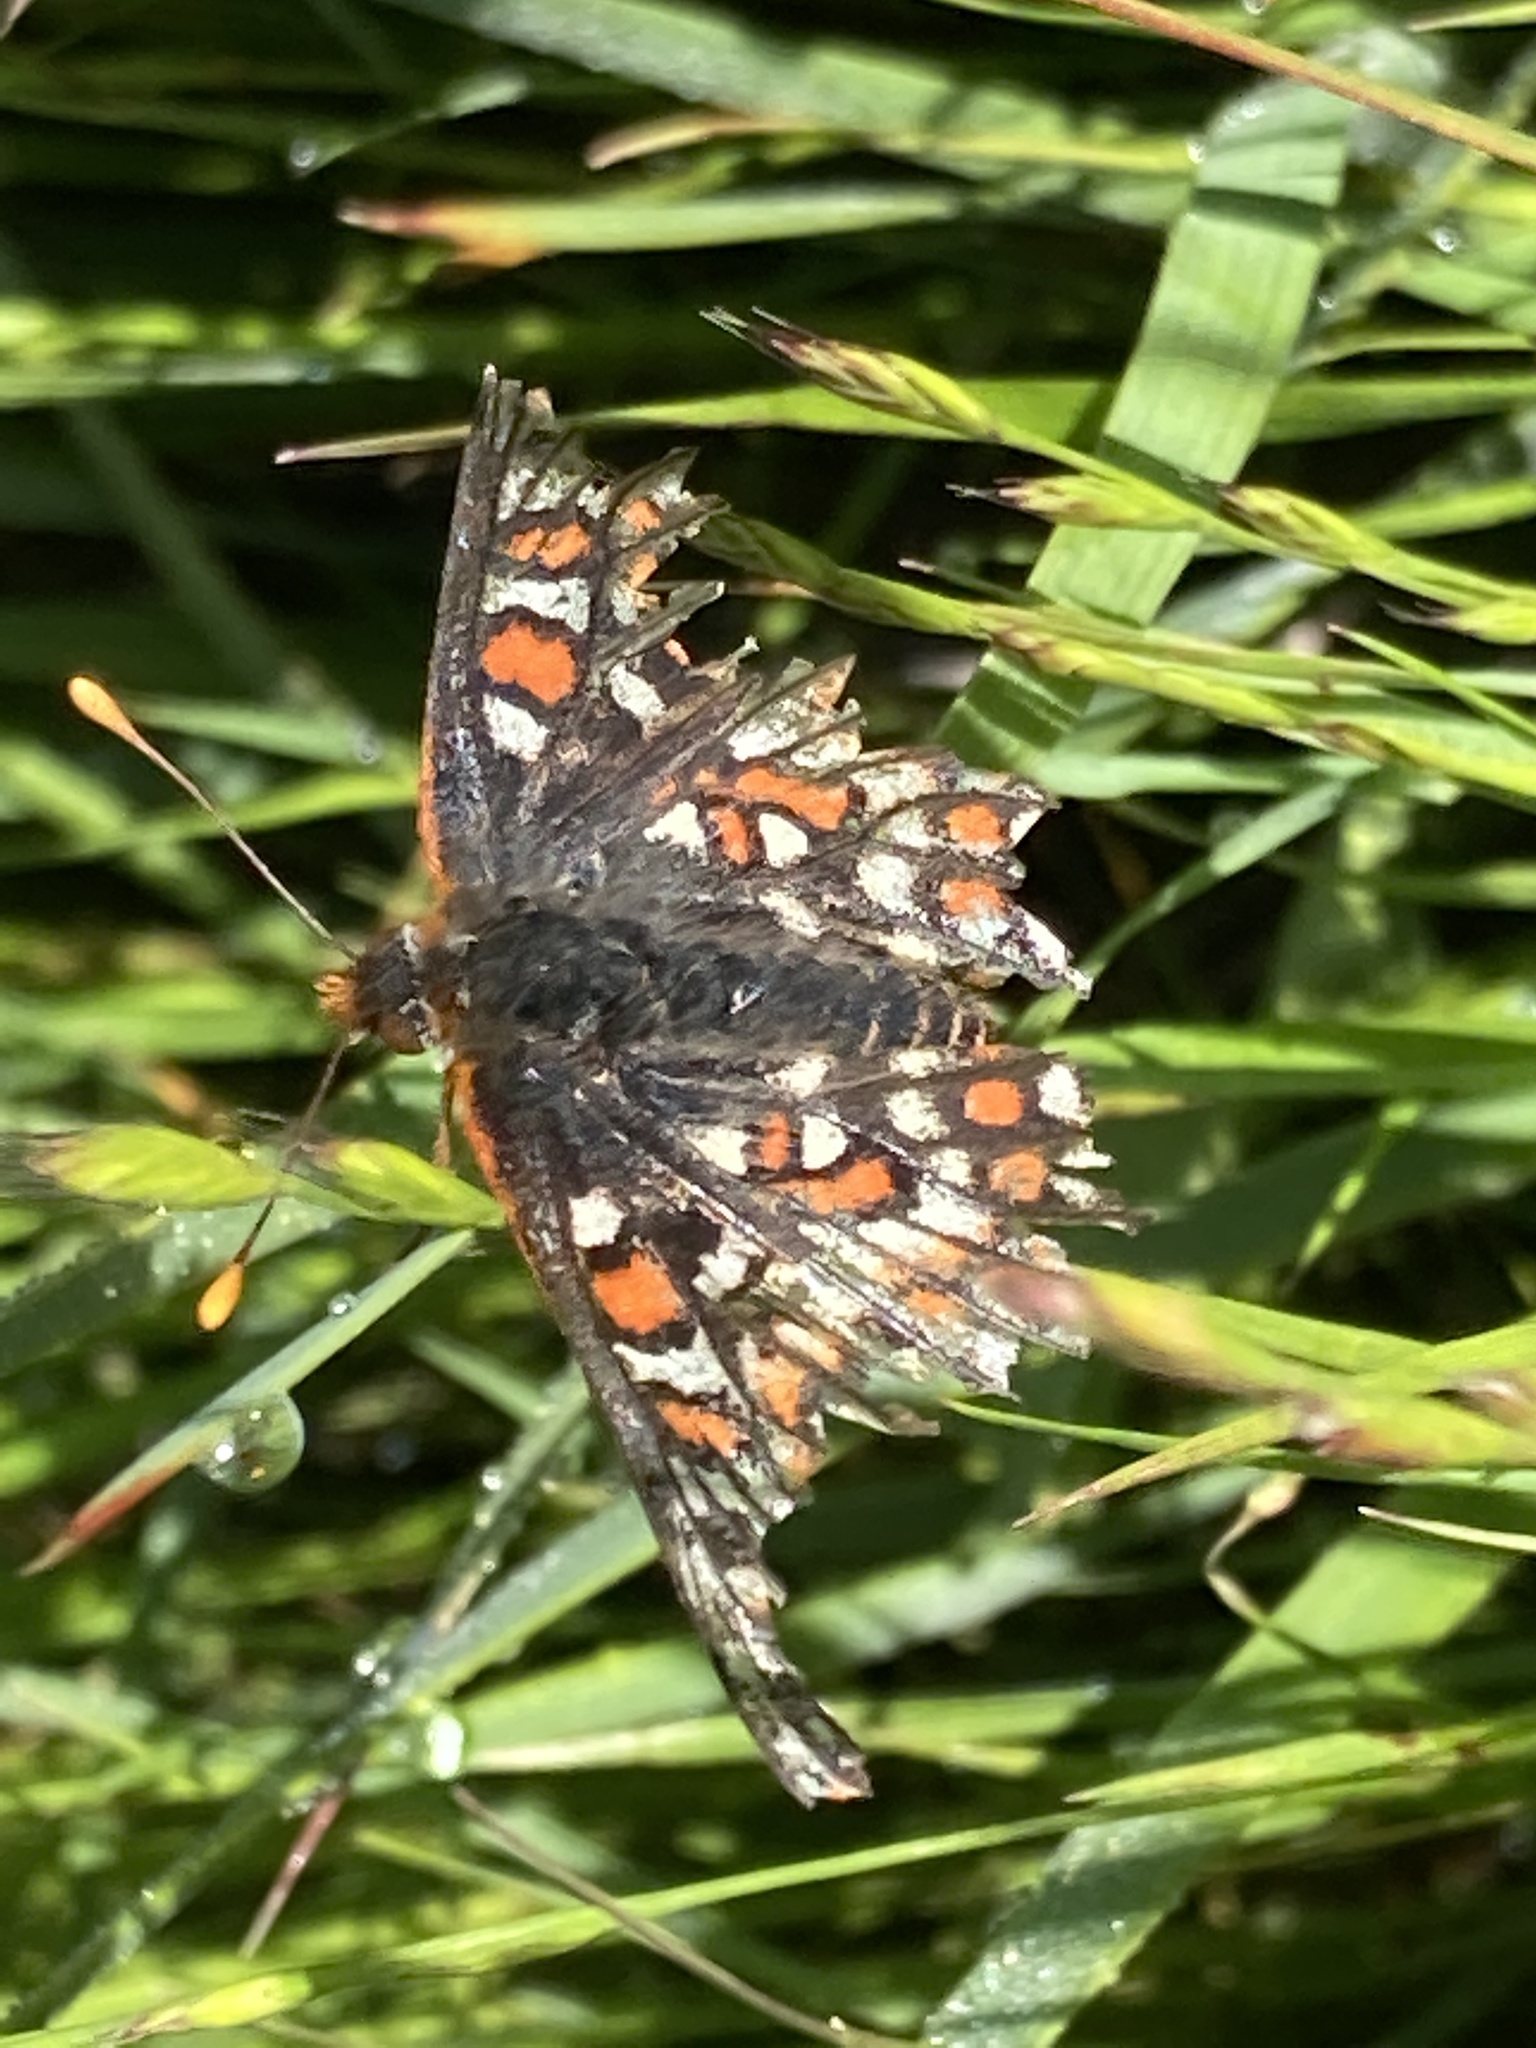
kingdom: Animalia
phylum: Arthropoda
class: Insecta
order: Lepidoptera
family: Nymphalidae
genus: Occidryas
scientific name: Occidryas editha
